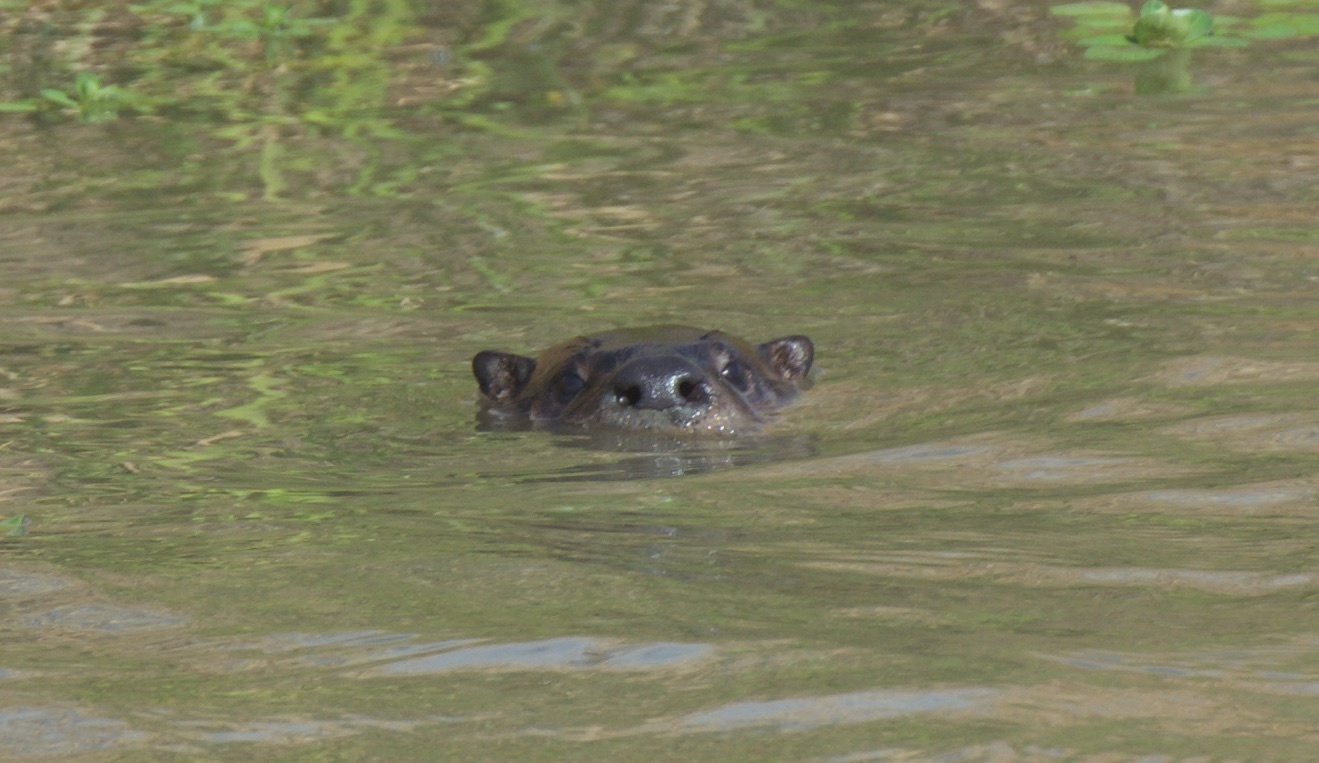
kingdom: Animalia
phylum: Chordata
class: Mammalia
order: Carnivora
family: Mustelidae
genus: Lontra
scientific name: Lontra canadensis
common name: North american river otter
